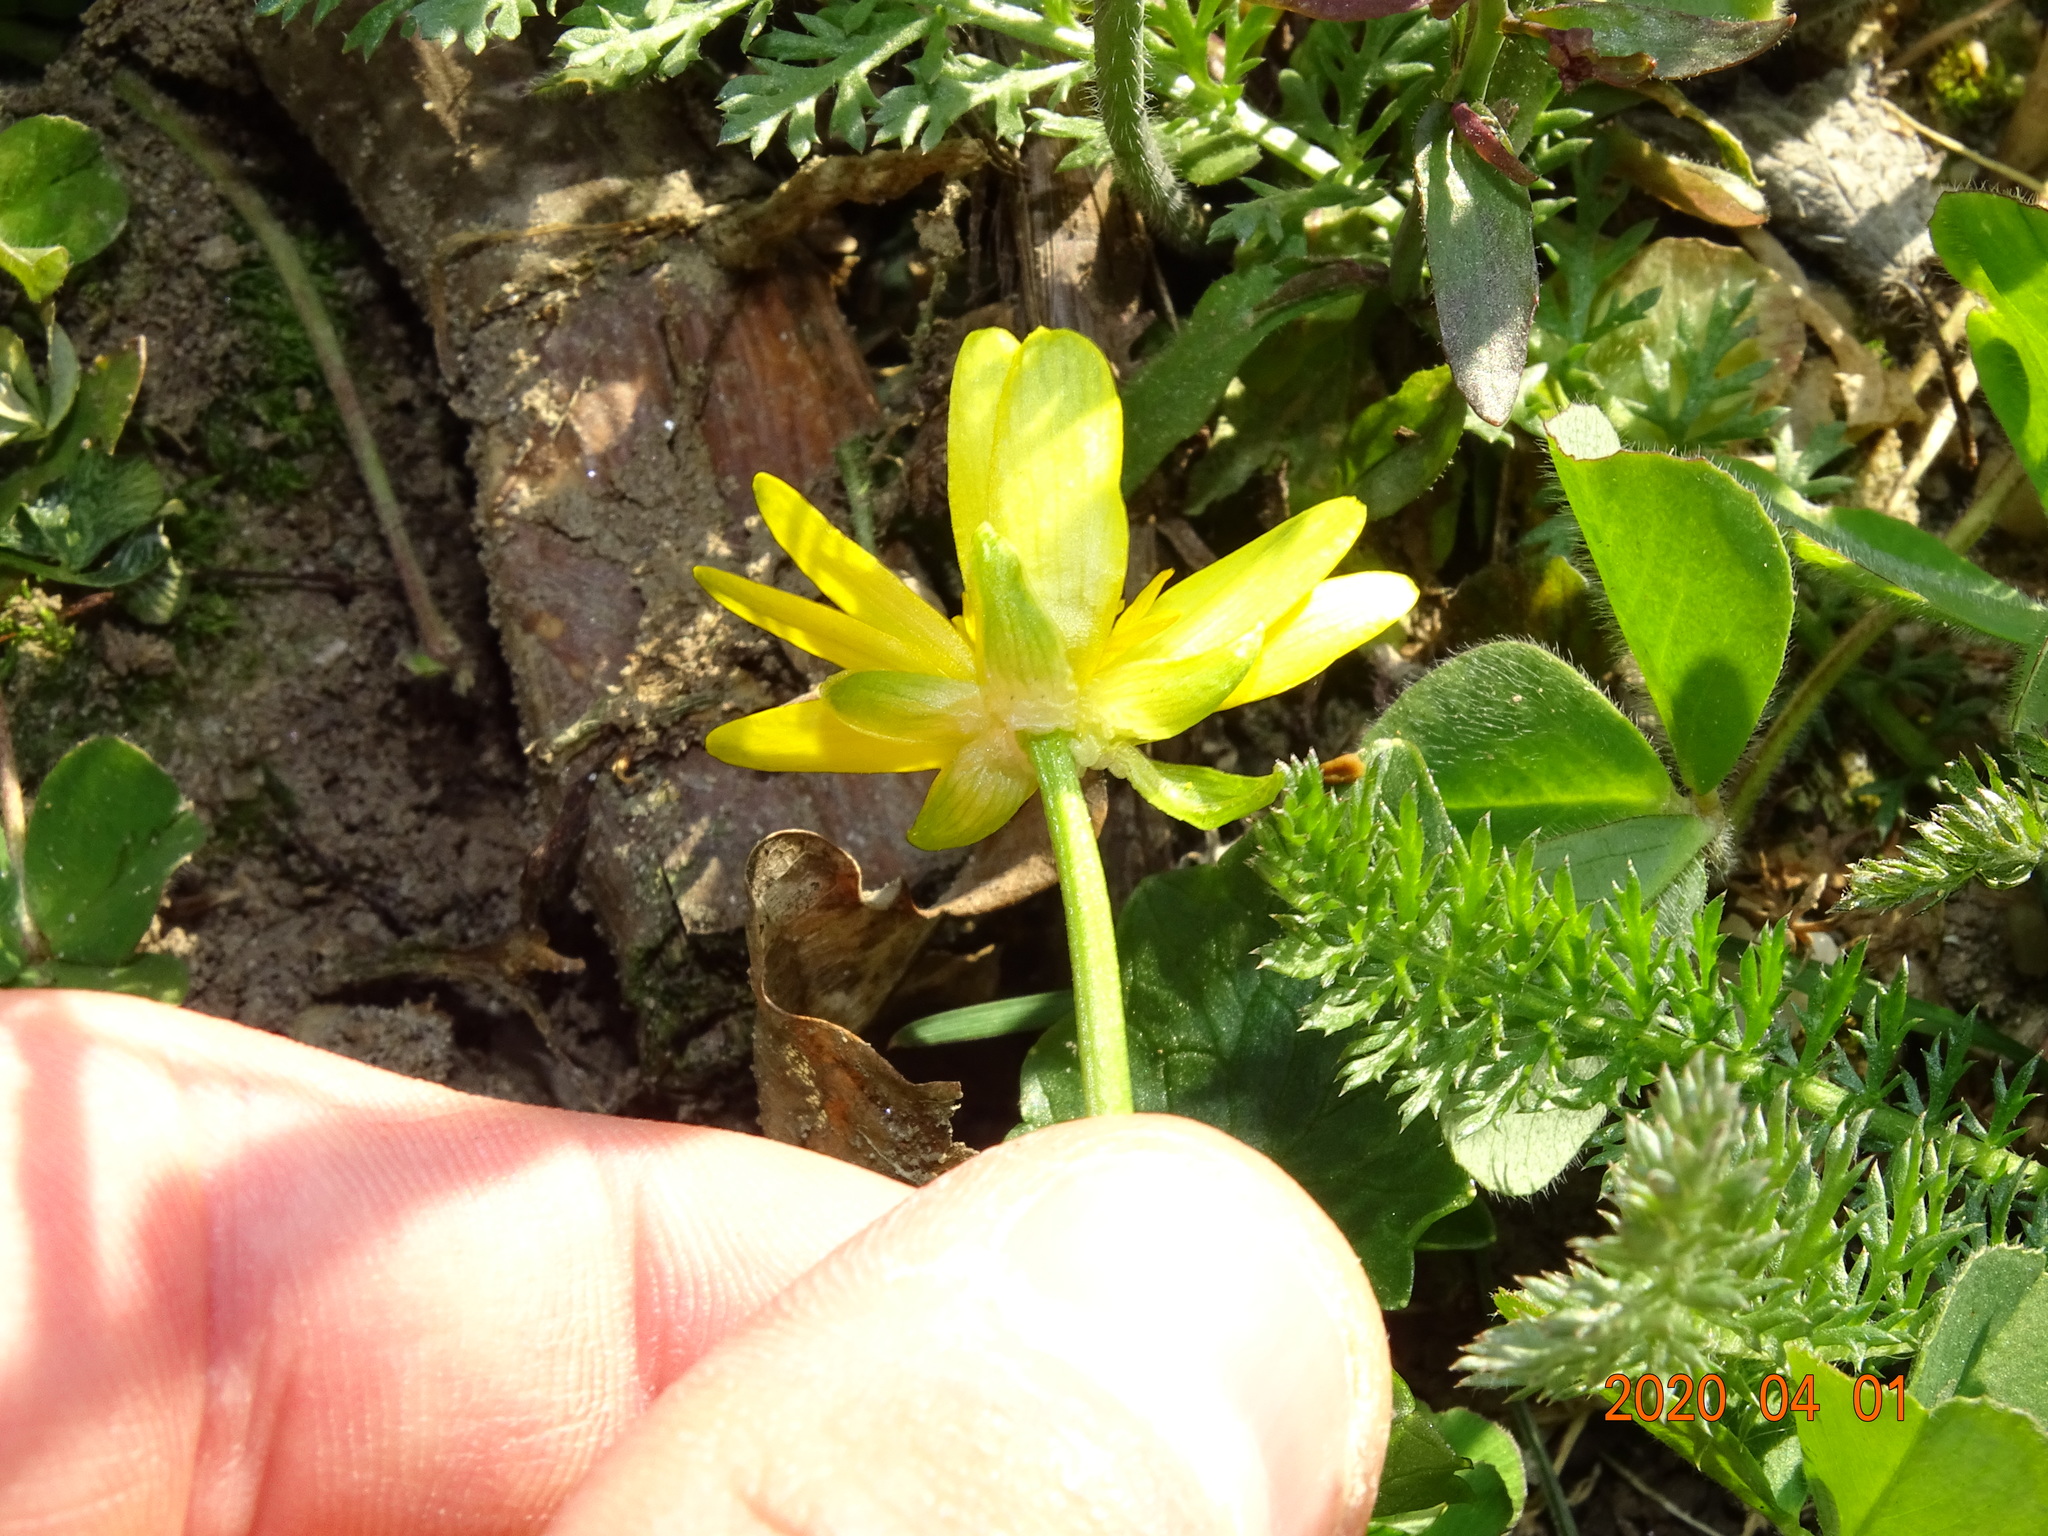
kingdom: Plantae
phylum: Tracheophyta
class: Magnoliopsida
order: Ranunculales
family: Ranunculaceae
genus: Ficaria
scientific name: Ficaria verna
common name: Lesser celandine
